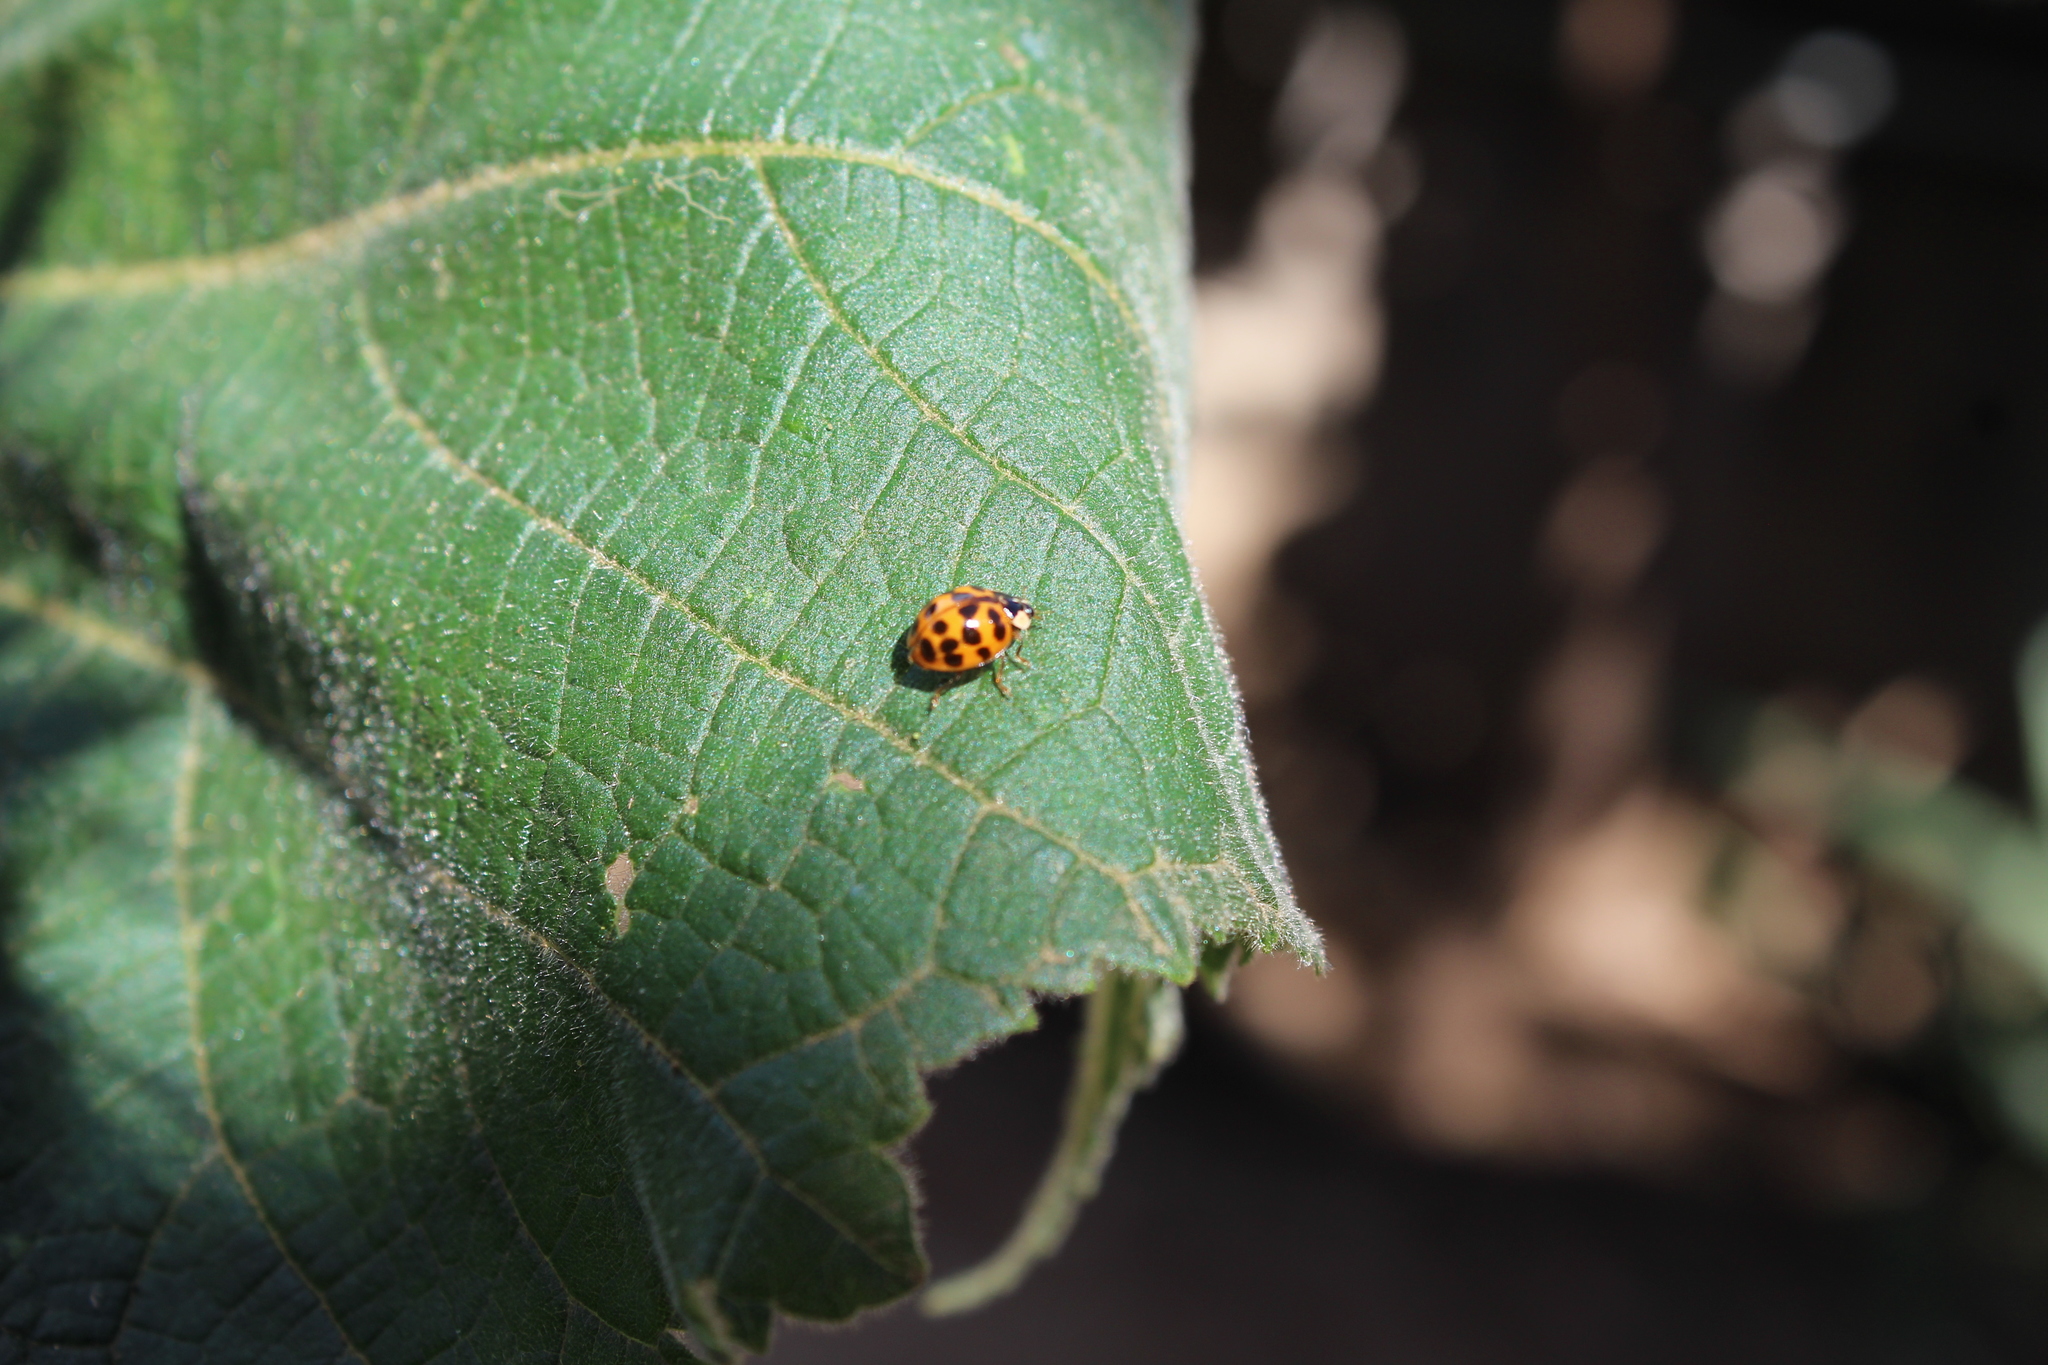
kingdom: Animalia
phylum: Arthropoda
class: Insecta
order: Coleoptera
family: Coccinellidae
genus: Harmonia
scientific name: Harmonia axyridis
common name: Harlequin ladybird
